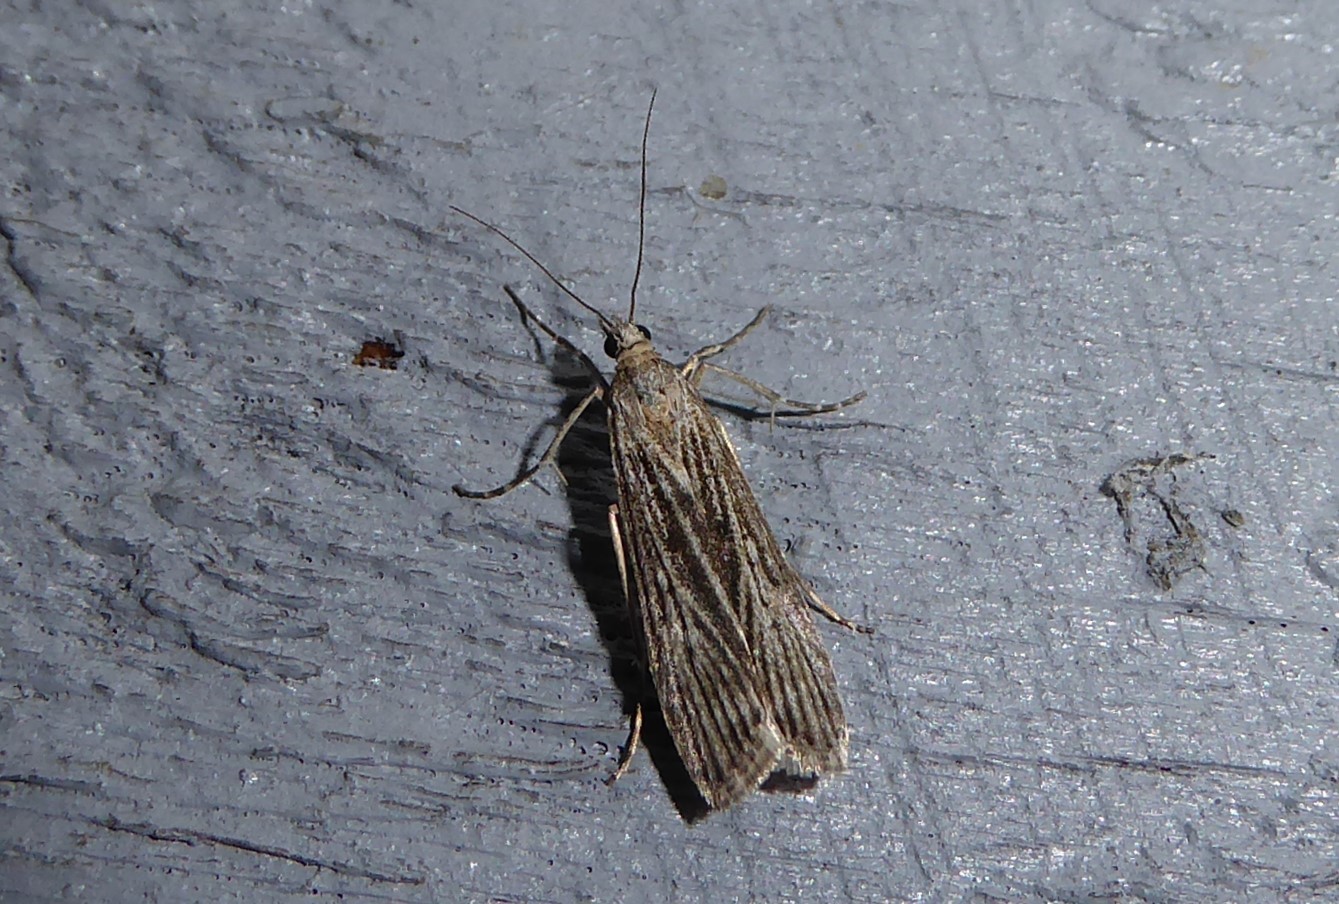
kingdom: Animalia
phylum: Arthropoda
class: Insecta
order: Lepidoptera
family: Crambidae
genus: Eudonia
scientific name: Eudonia atmogramma
